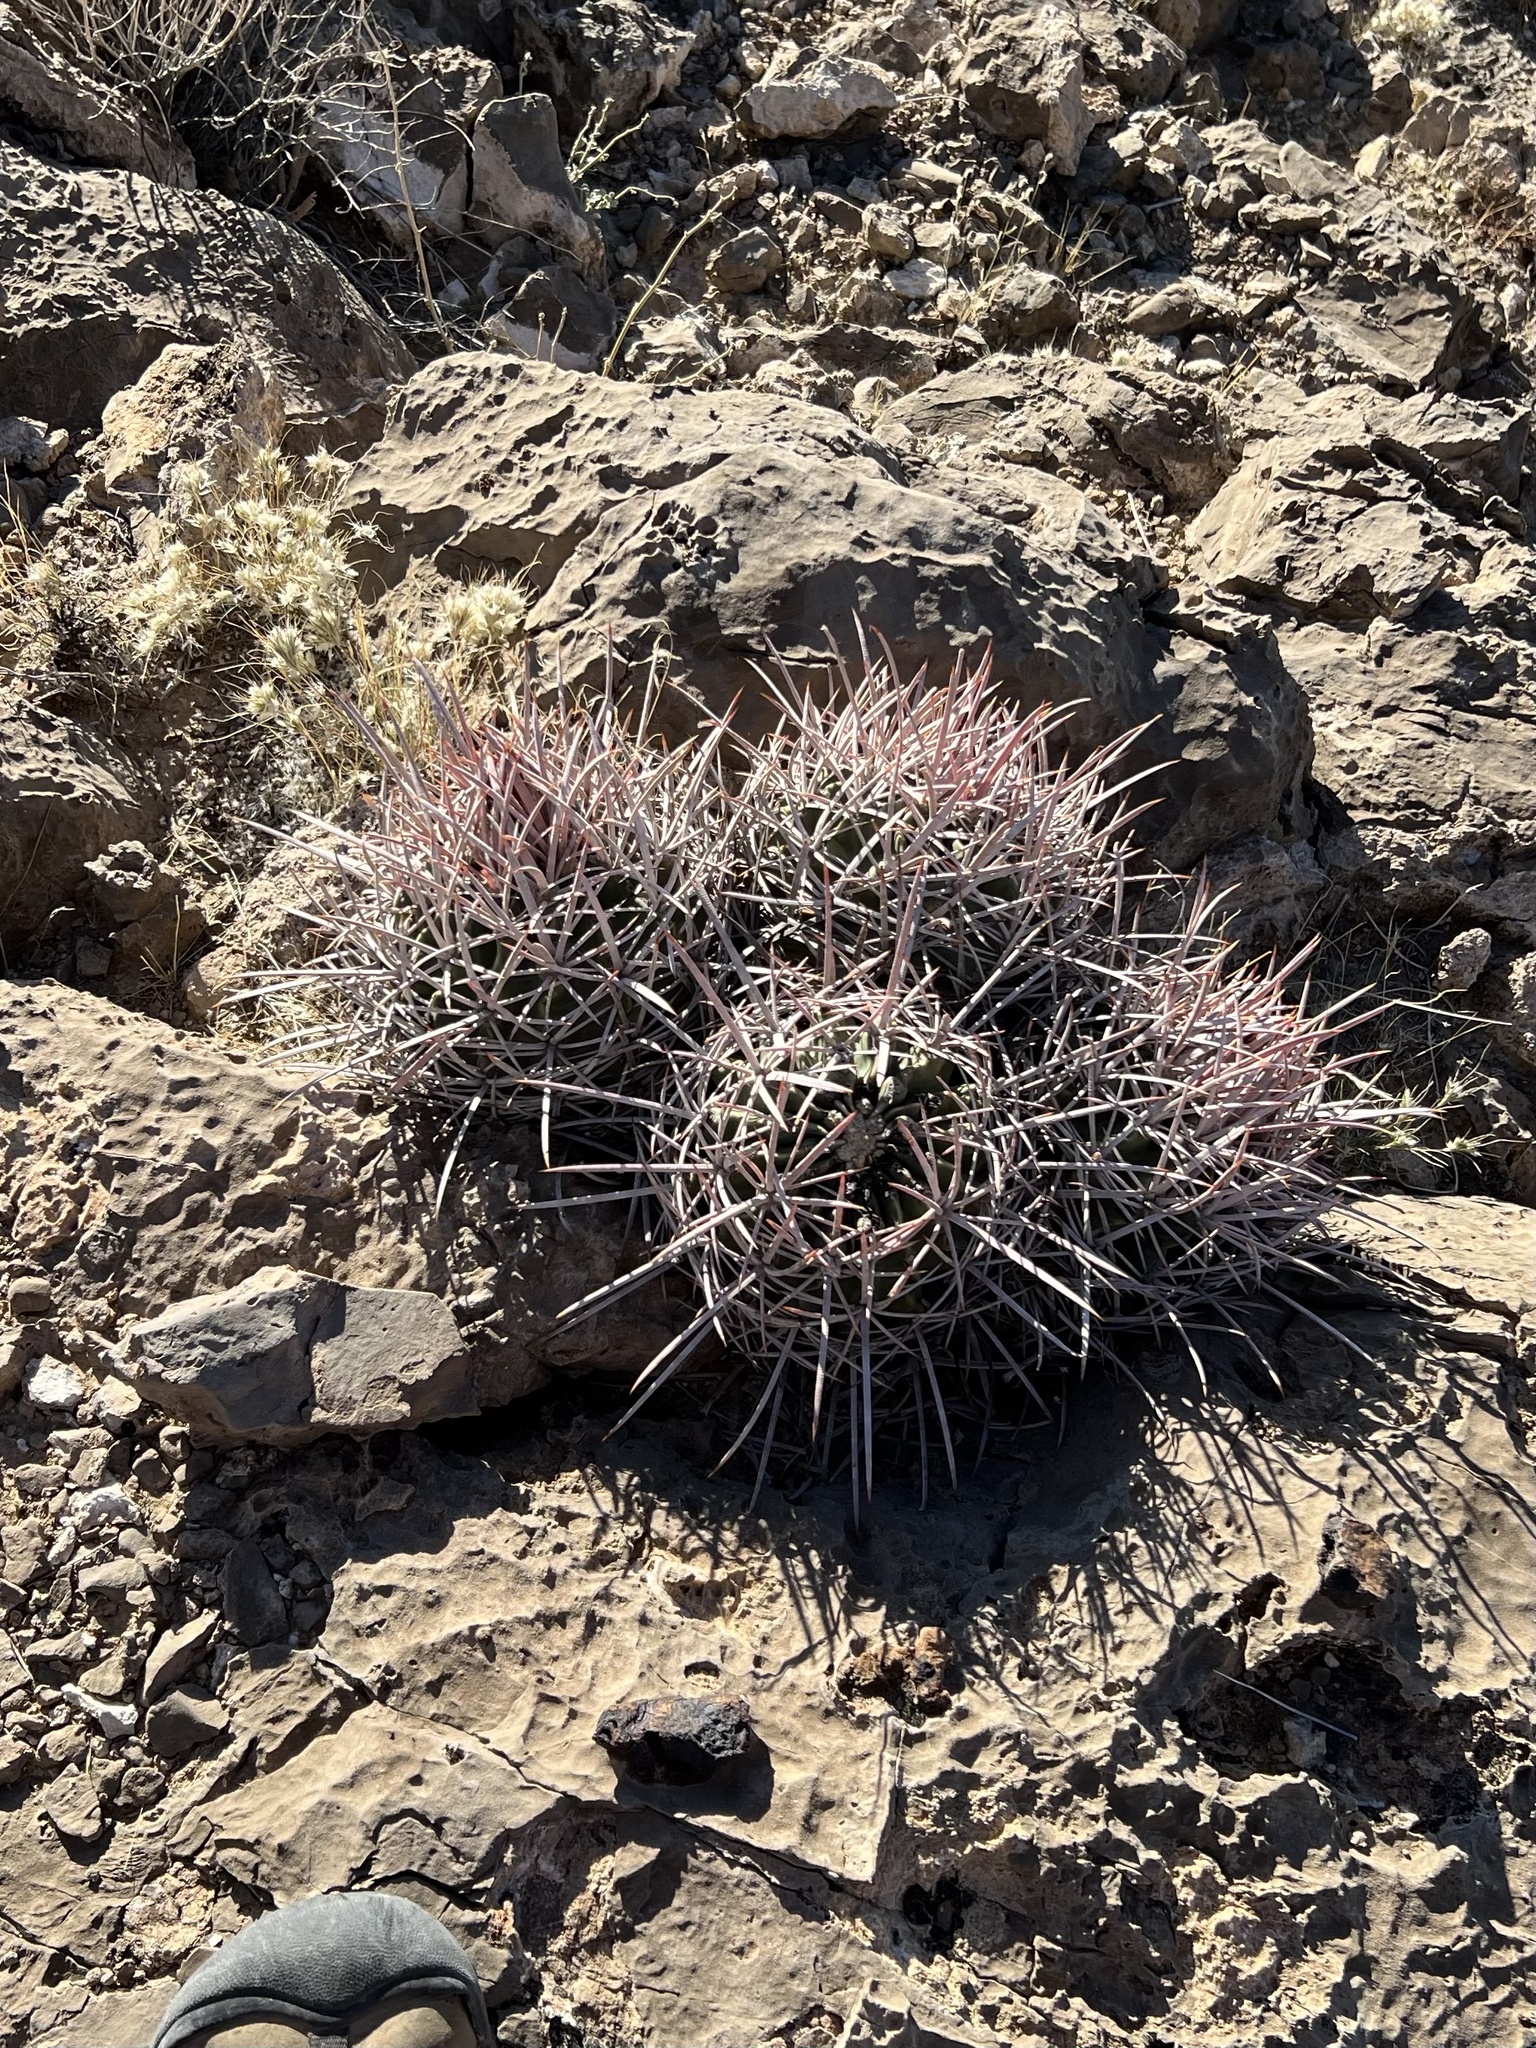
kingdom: Plantae
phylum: Tracheophyta
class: Magnoliopsida
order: Caryophyllales
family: Cactaceae
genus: Echinocactus
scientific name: Echinocactus polycephalus
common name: Cottontop cactus
